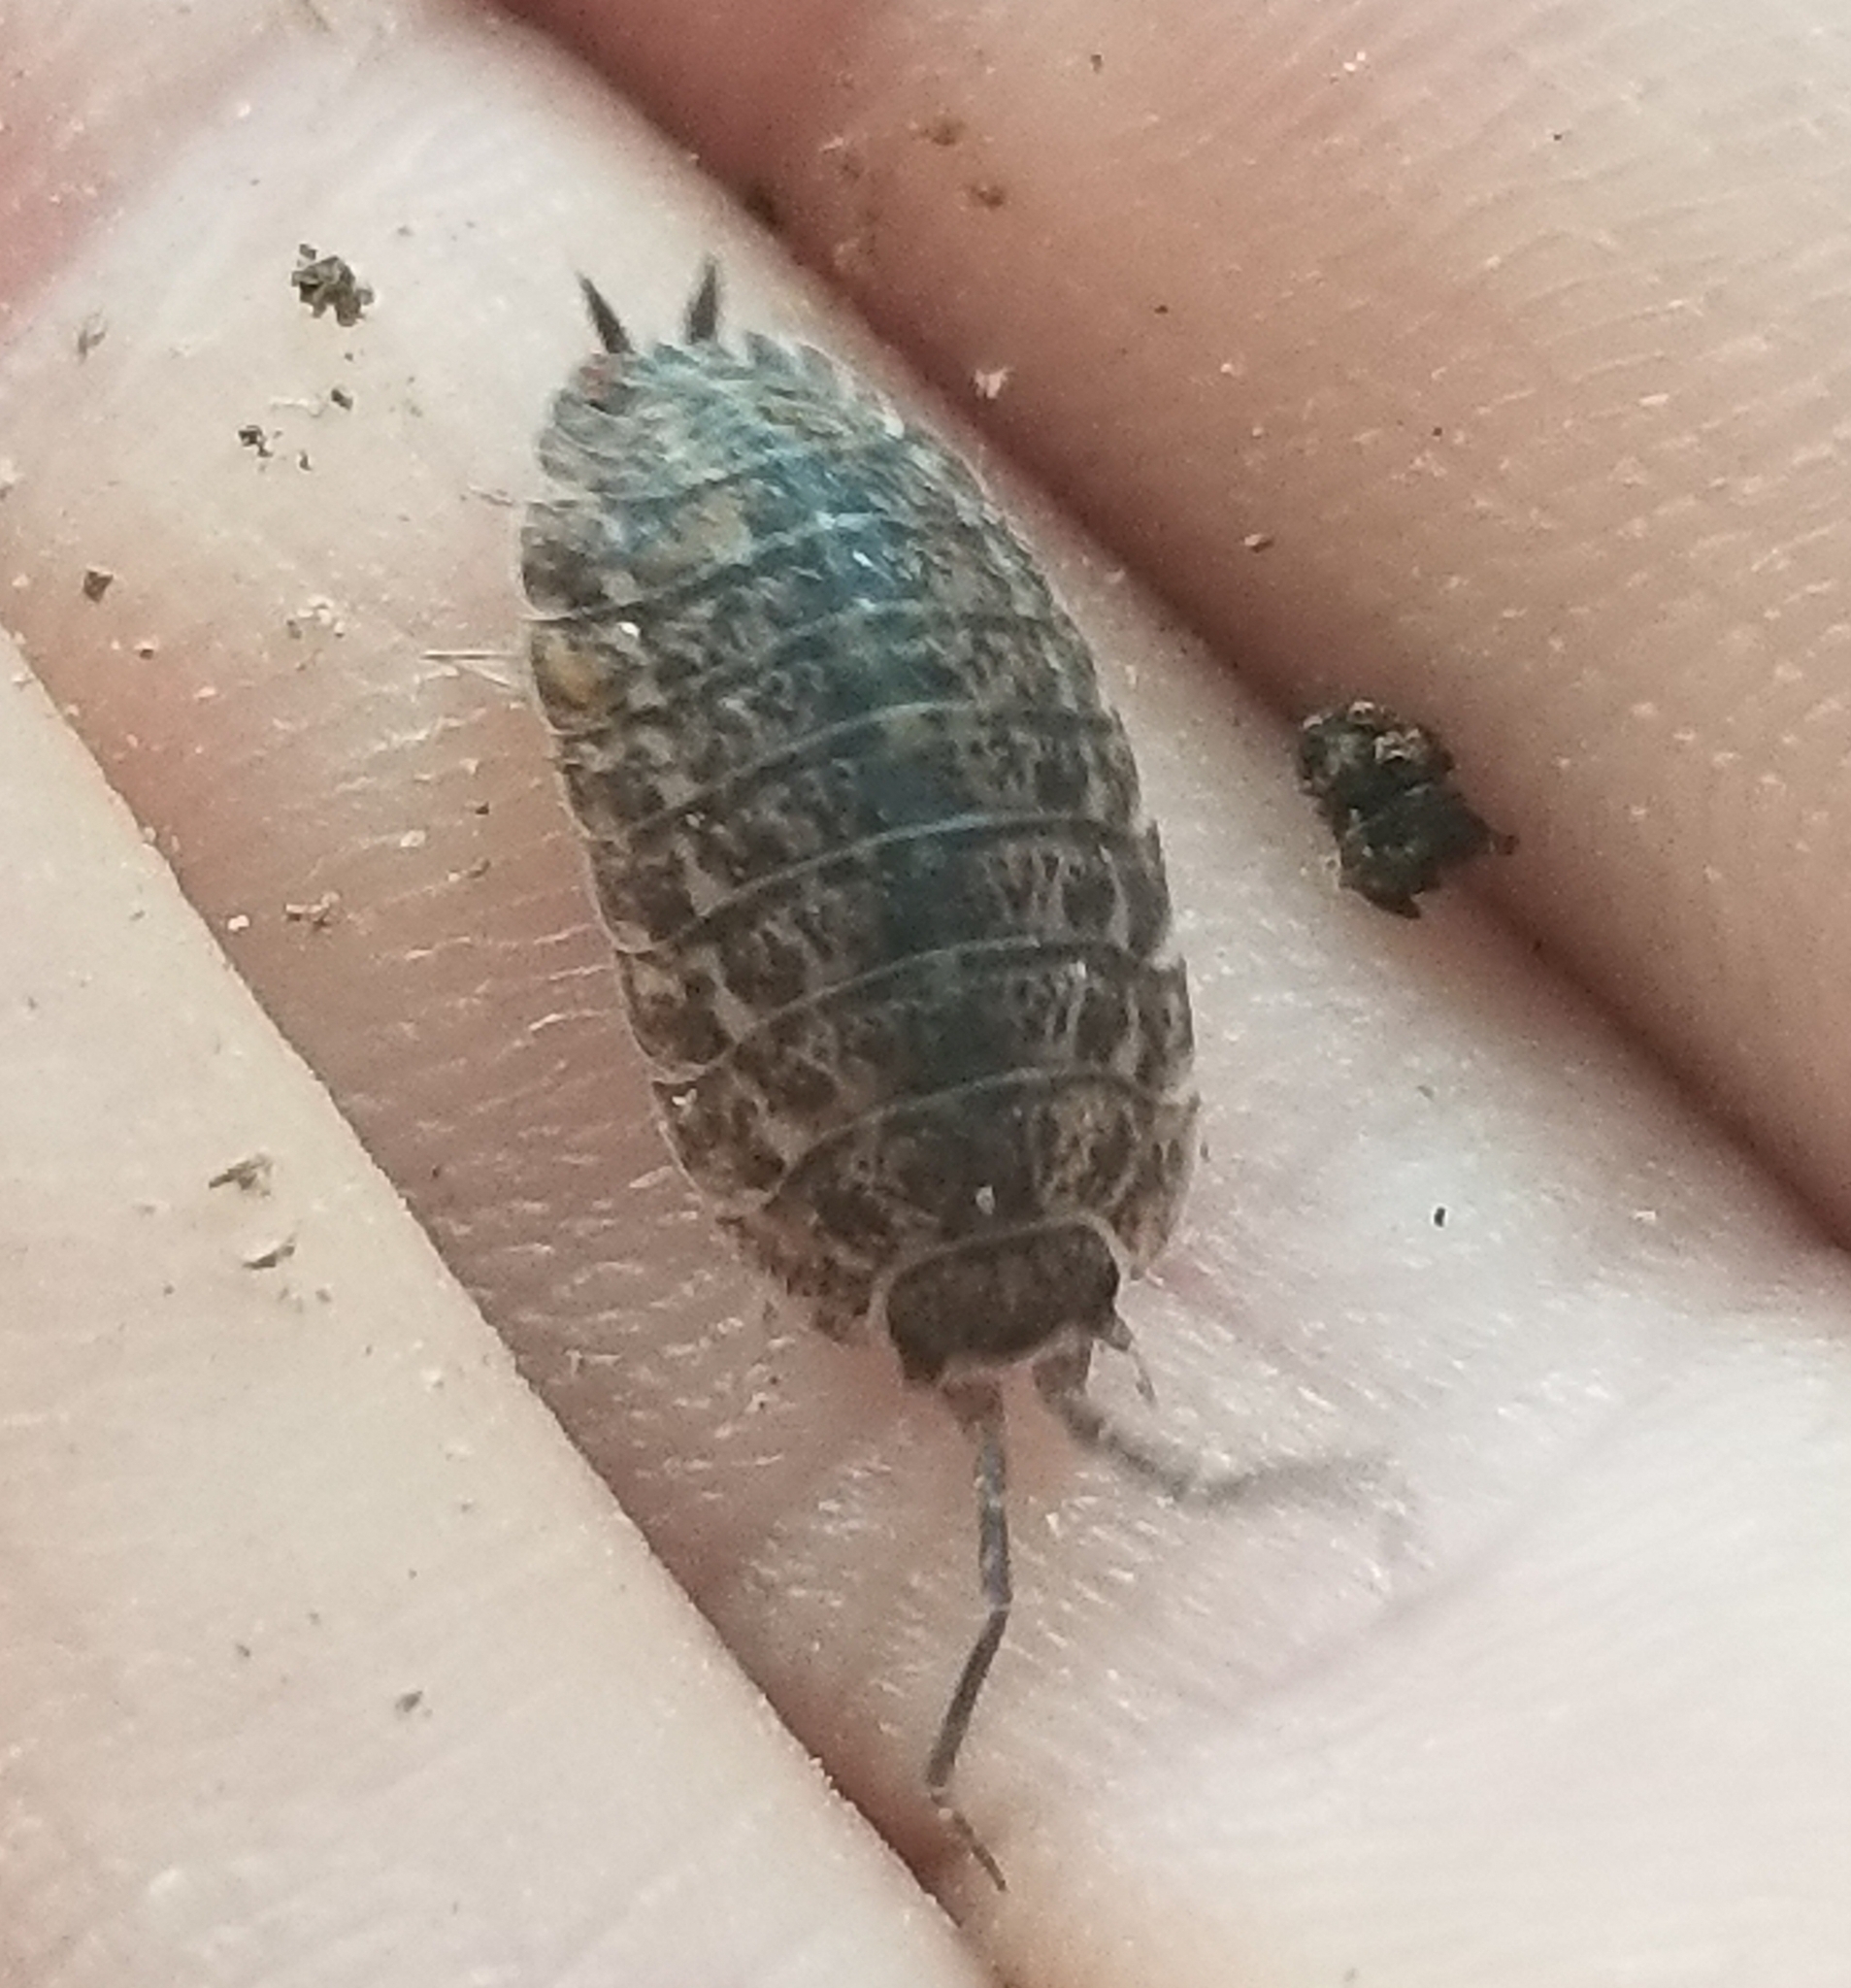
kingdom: Animalia
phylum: Arthropoda
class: Malacostraca
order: Isopoda
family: Trachelipodidae
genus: Trachelipus
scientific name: Trachelipus rathkii
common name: Isopod
